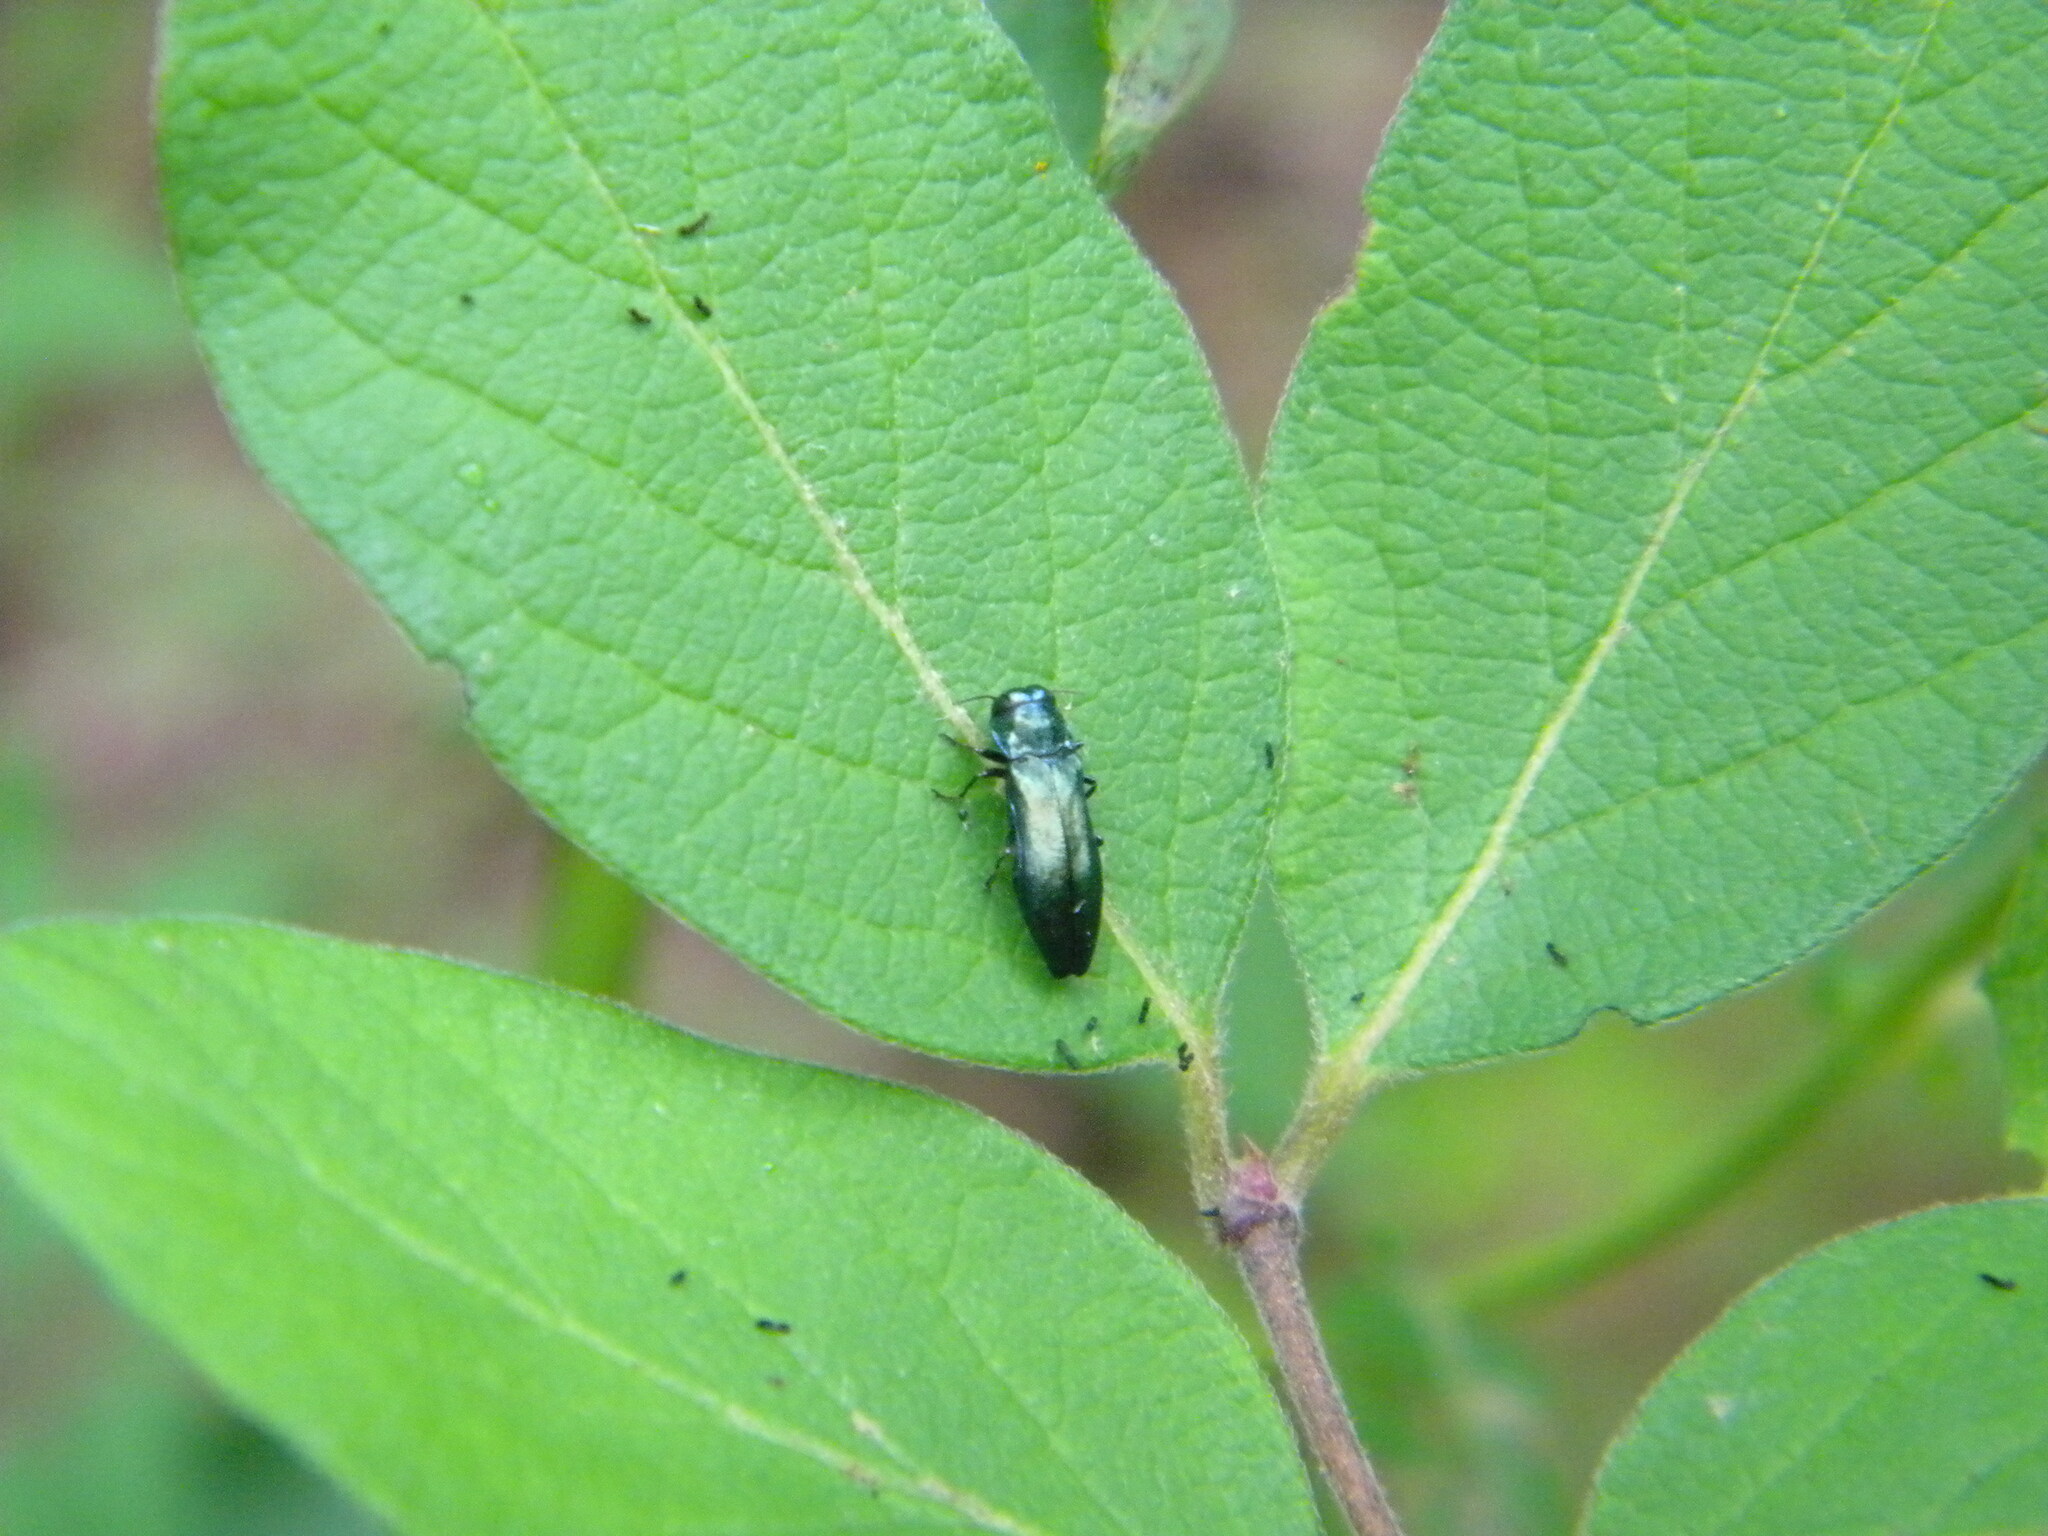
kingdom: Animalia
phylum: Arthropoda
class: Insecta
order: Coleoptera
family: Buprestidae
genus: Agrilus
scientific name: Agrilus cyanescens
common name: Bluish borer beetle
